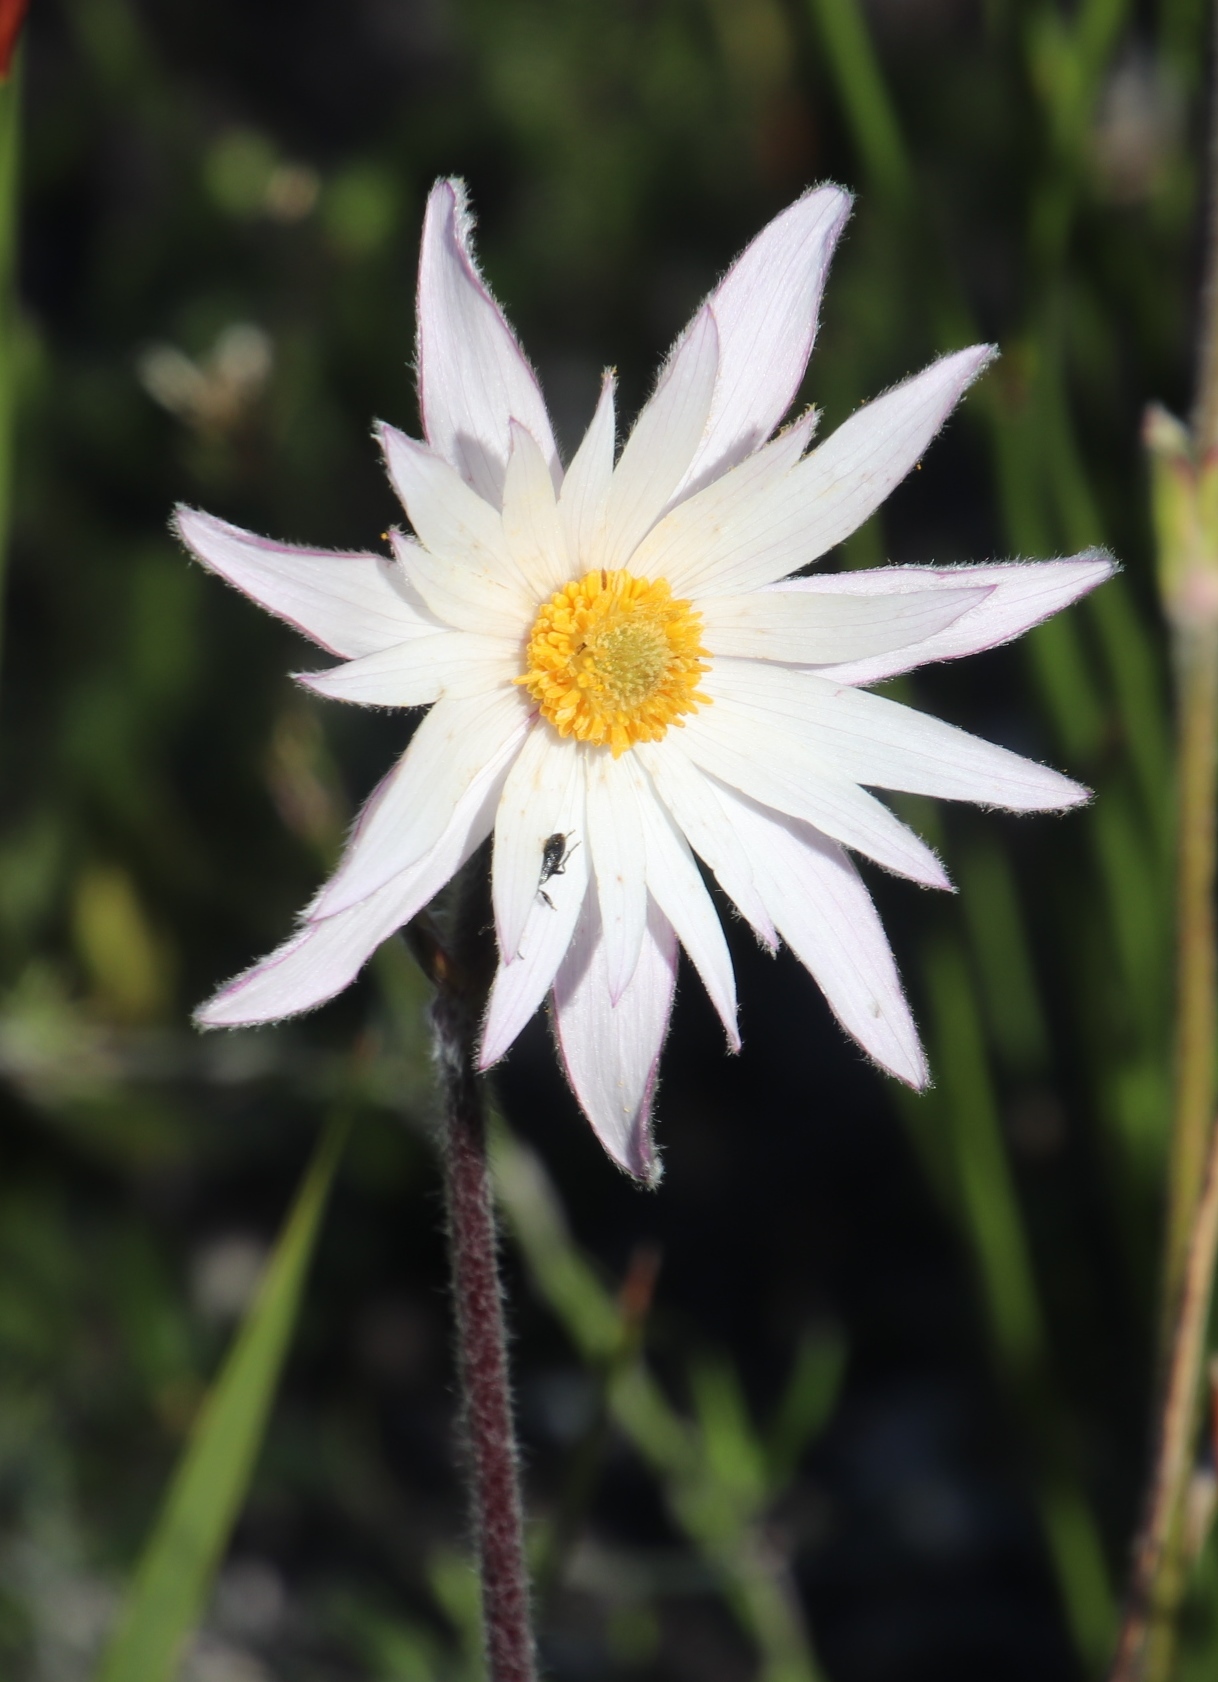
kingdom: Plantae
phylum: Tracheophyta
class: Magnoliopsida
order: Ranunculales
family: Ranunculaceae
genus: Knowltonia
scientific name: Knowltonia tenuifolia
